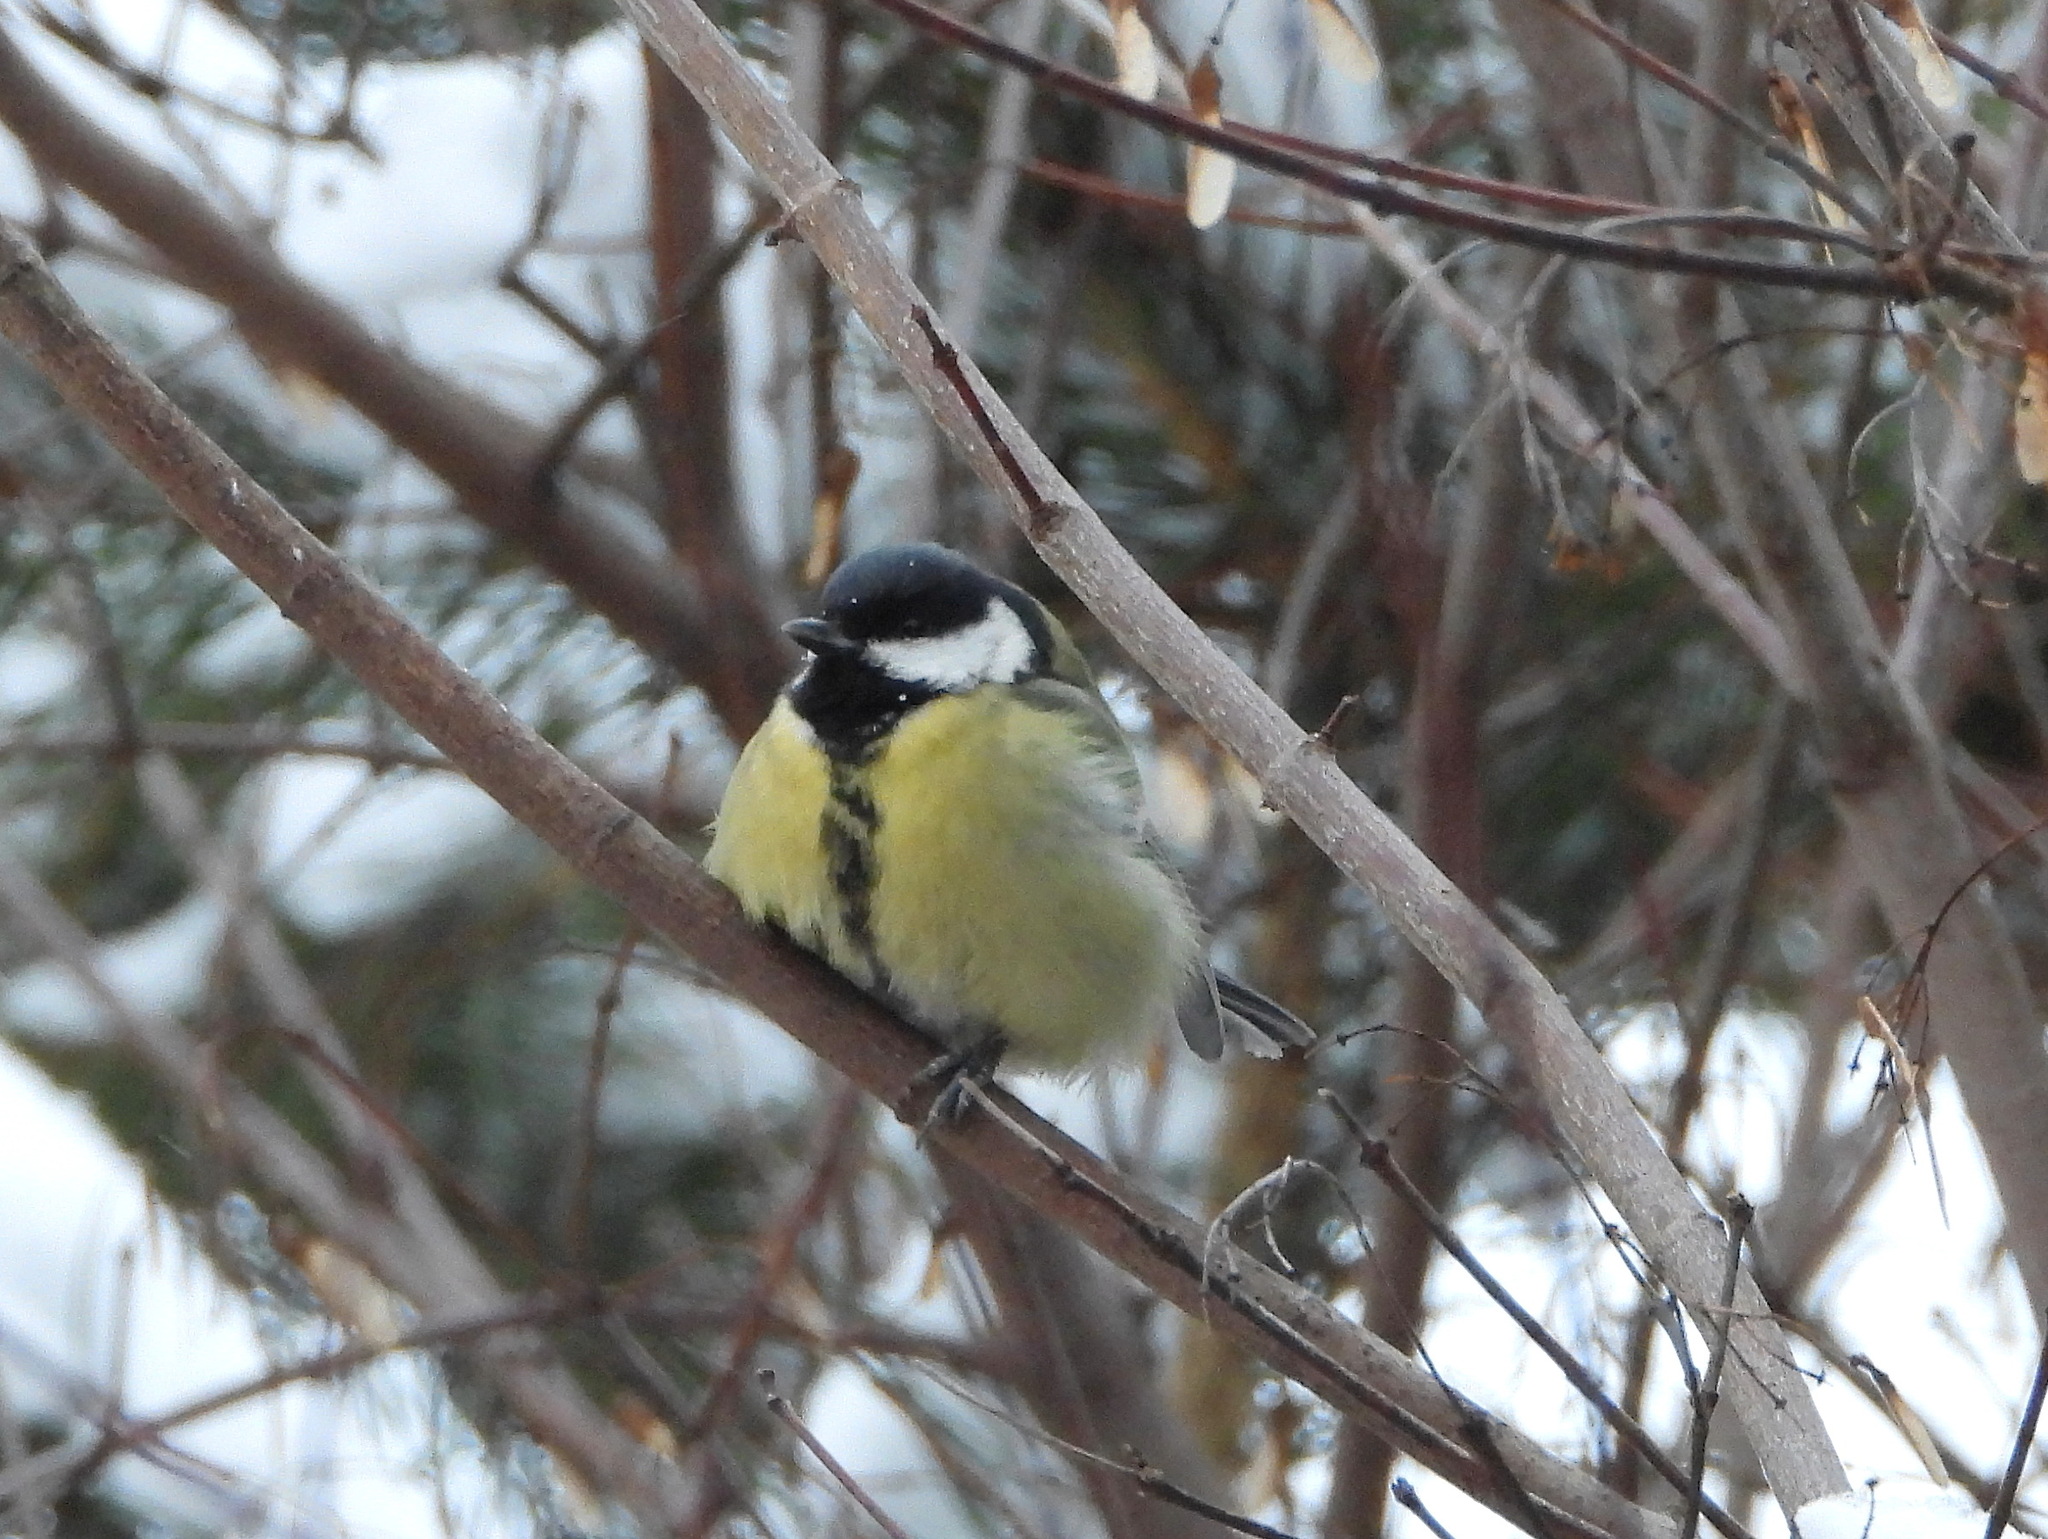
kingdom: Animalia
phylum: Chordata
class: Aves
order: Passeriformes
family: Paridae
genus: Parus
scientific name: Parus major
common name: Great tit
